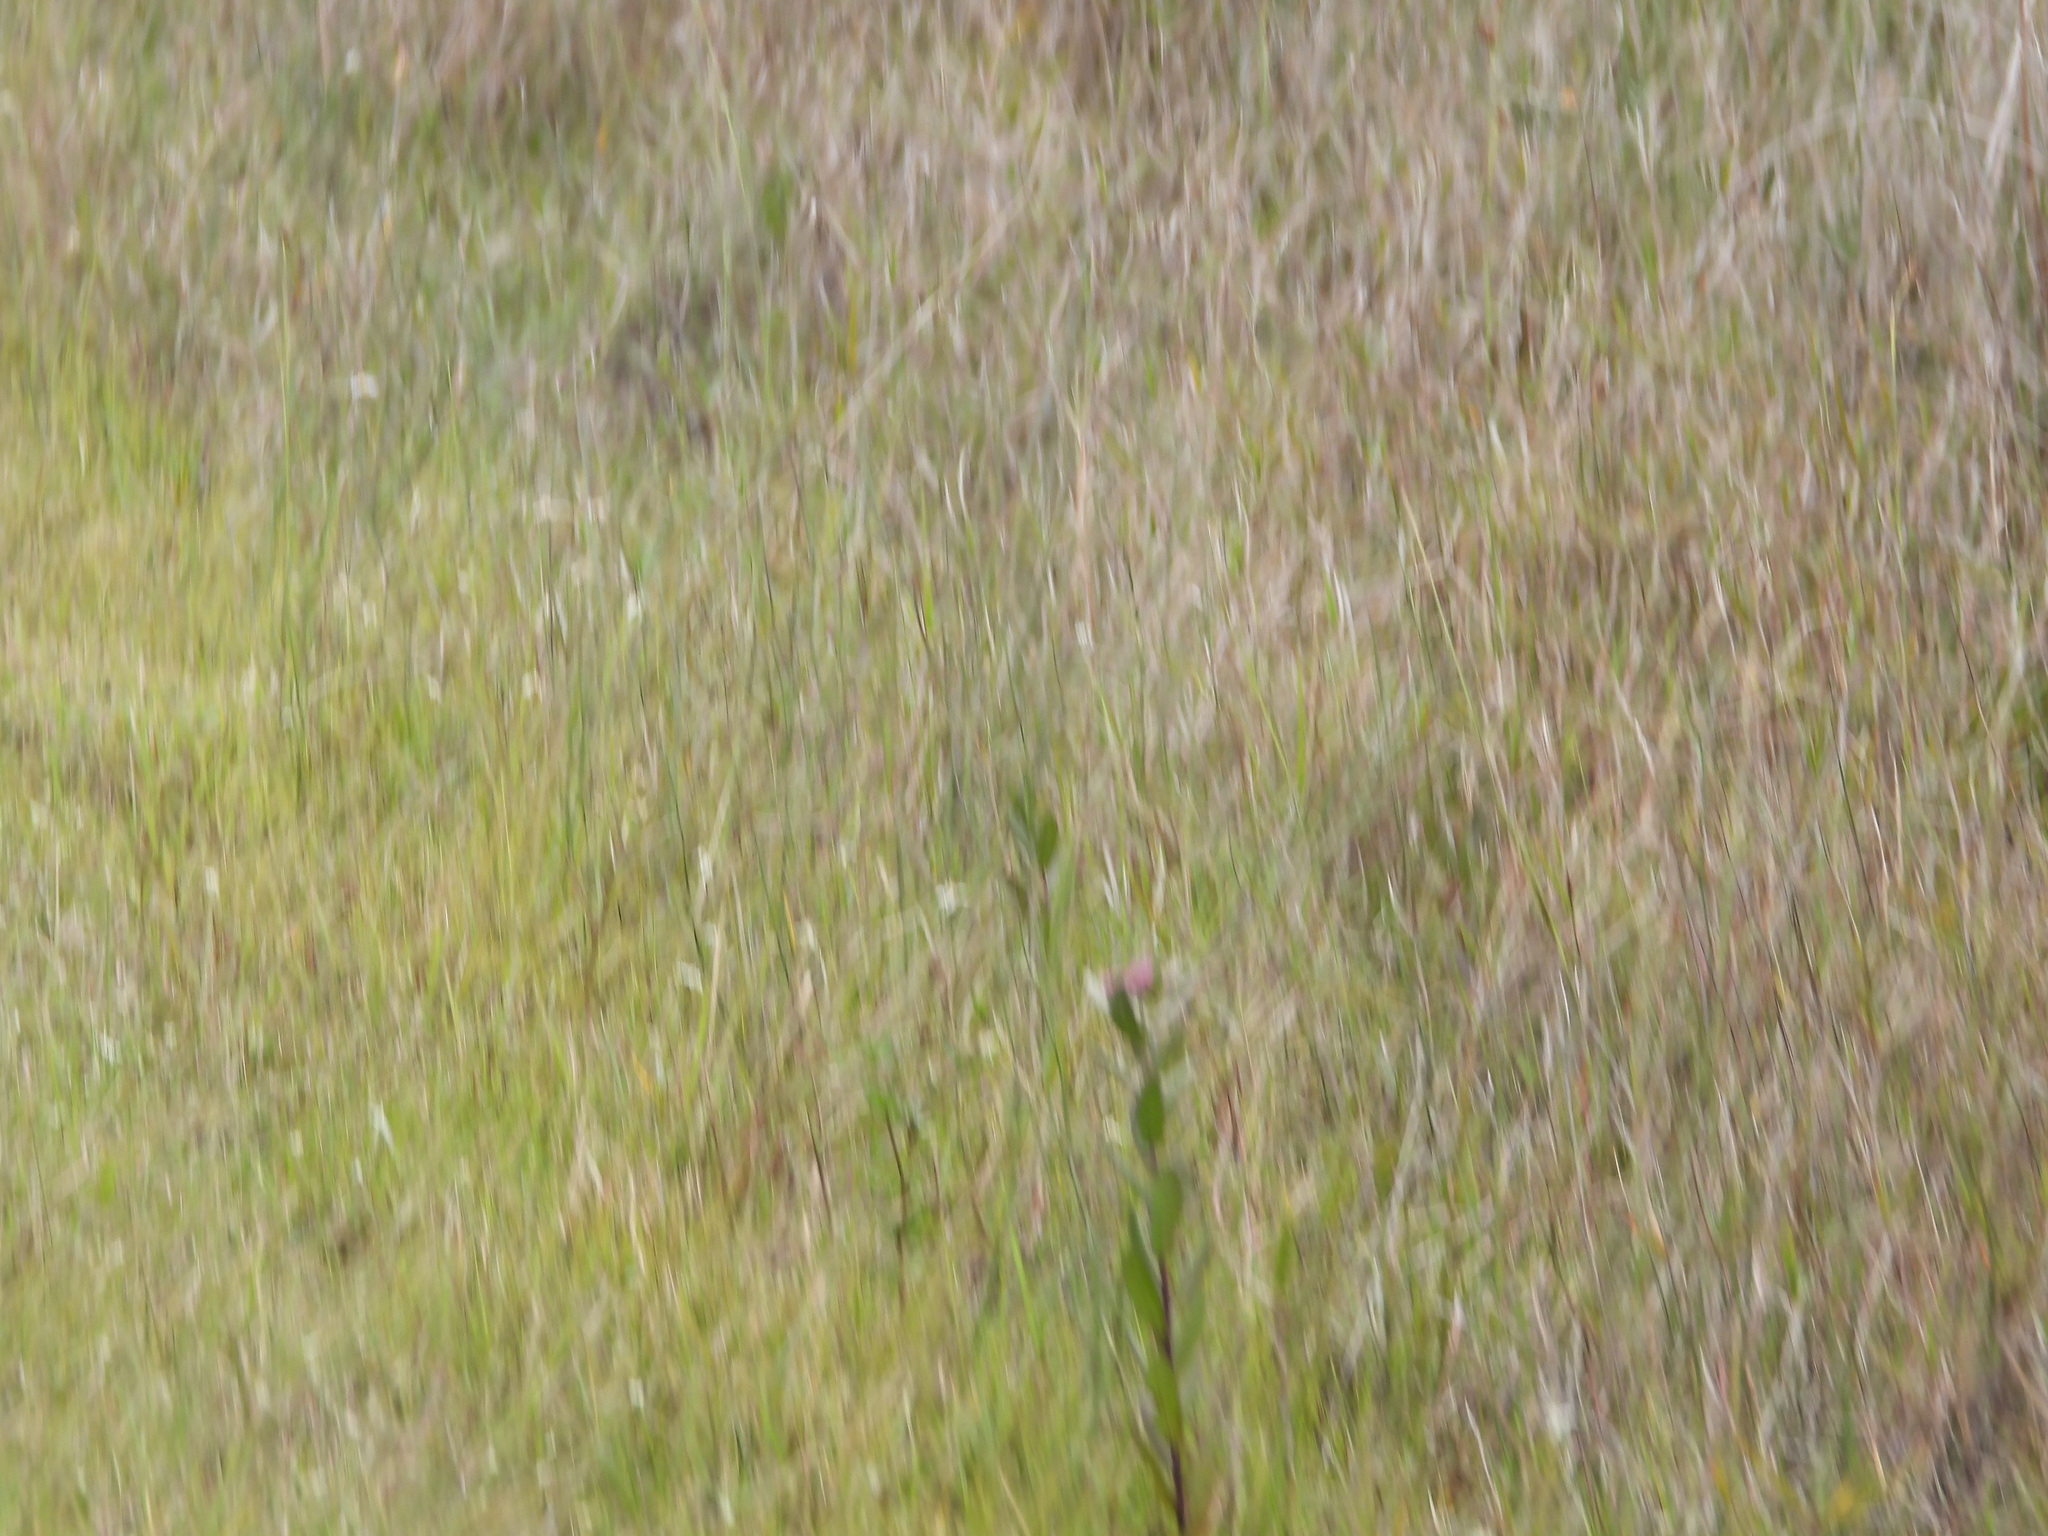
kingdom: Plantae
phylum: Tracheophyta
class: Magnoliopsida
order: Asterales
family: Asteraceae
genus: Pluchea
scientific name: Pluchea baccharis
